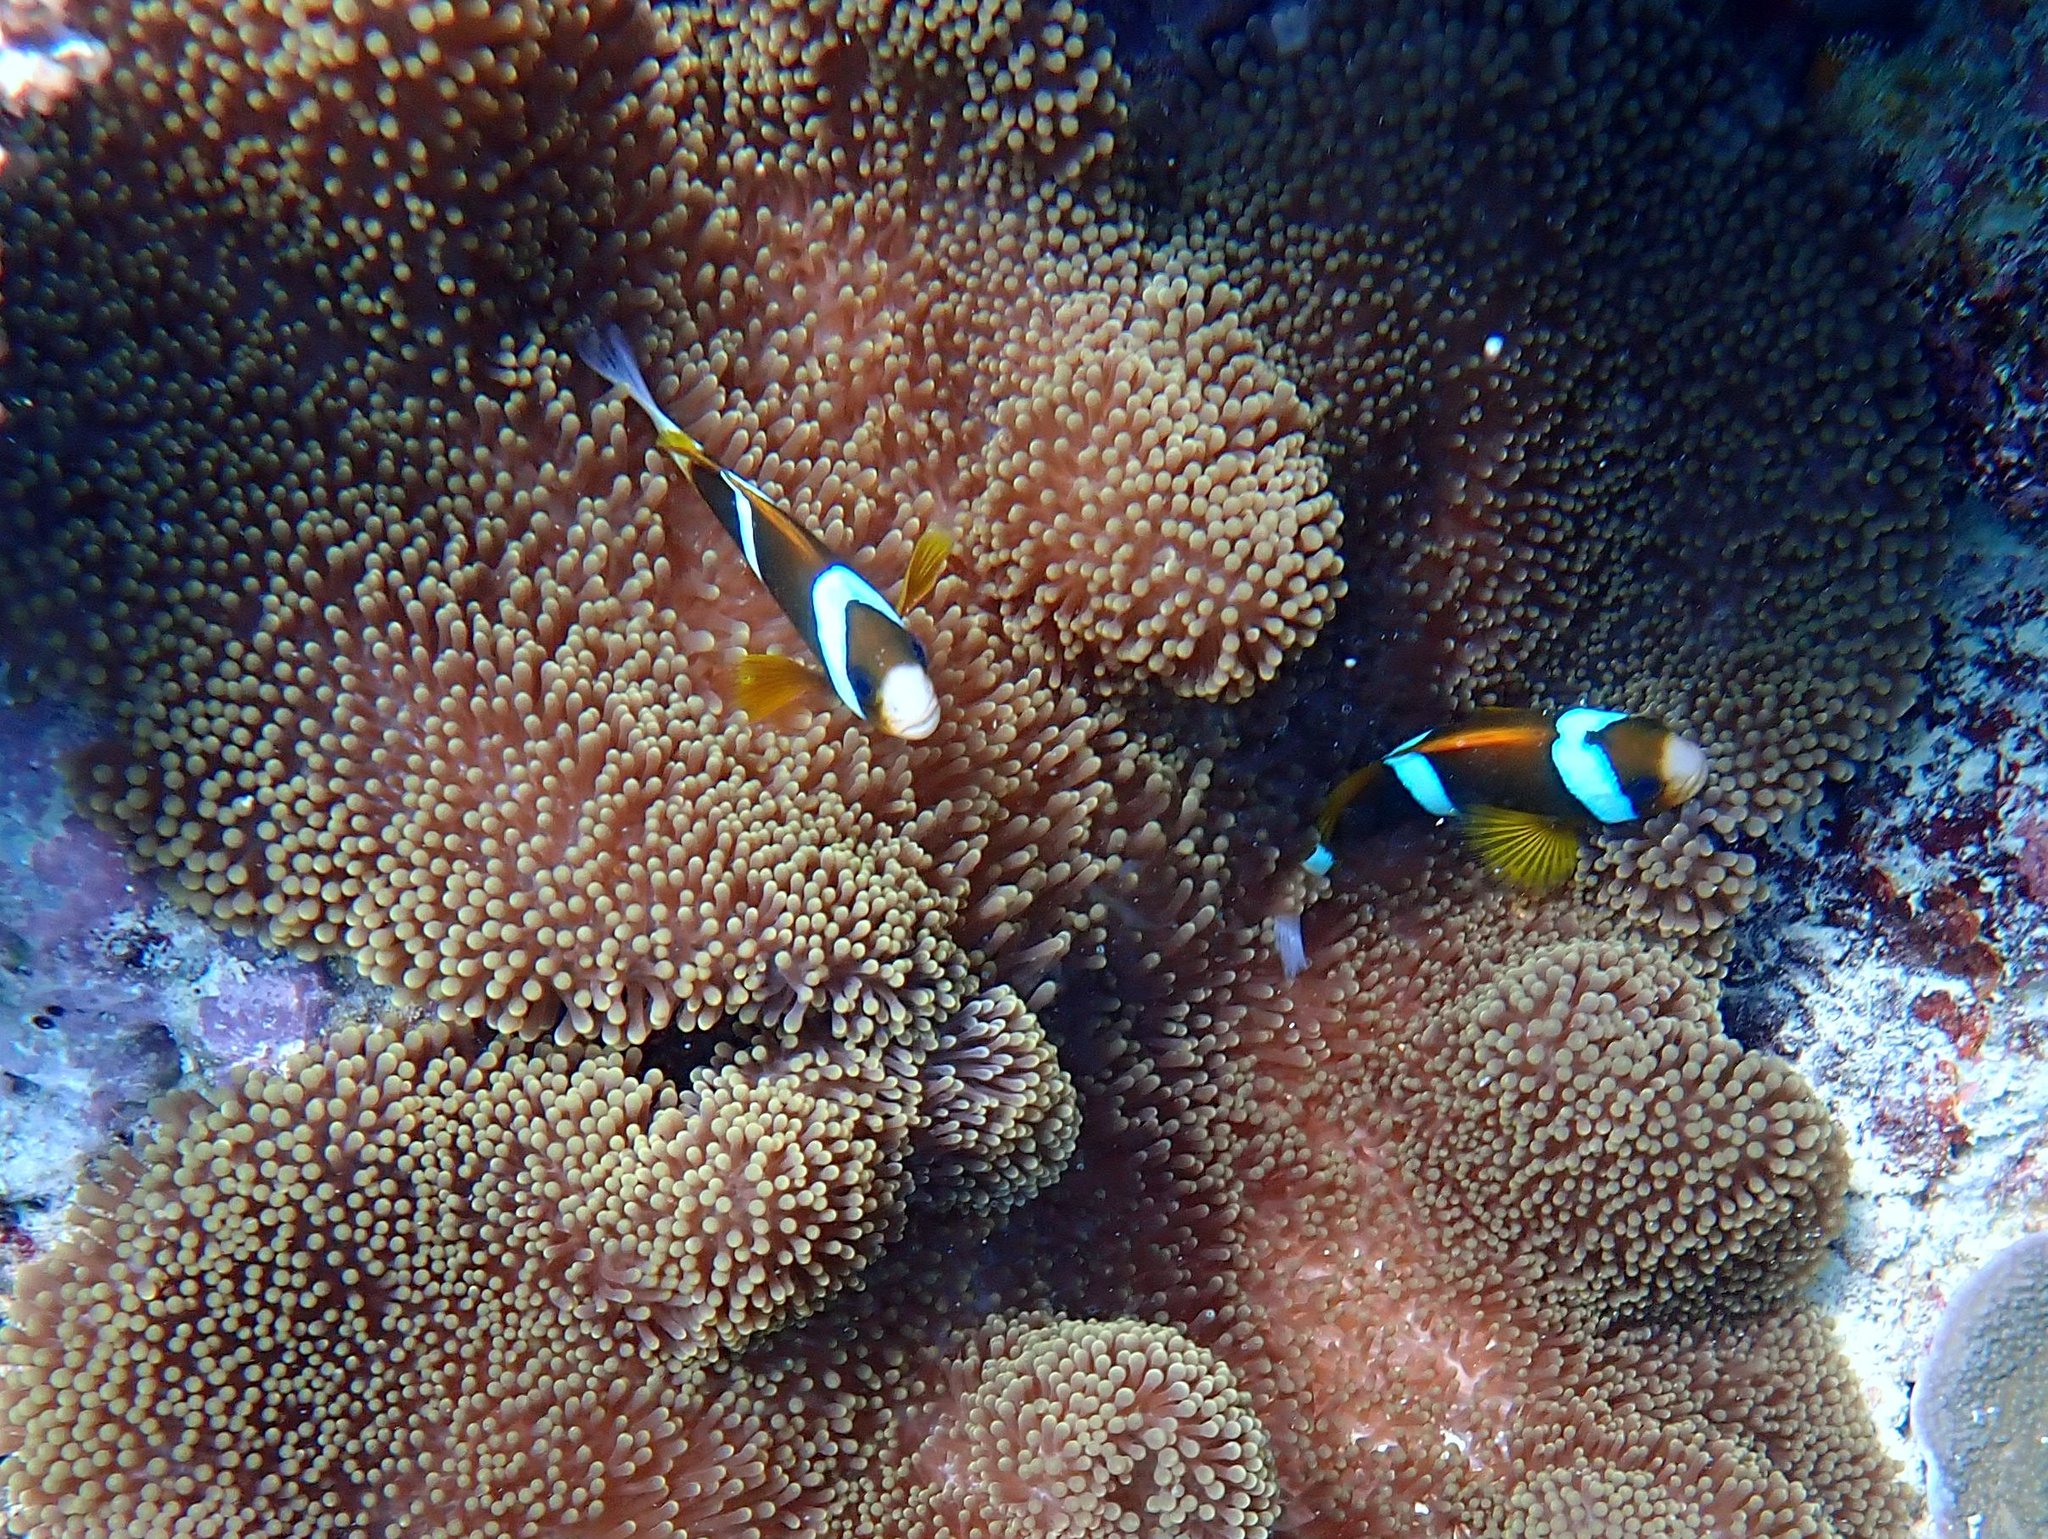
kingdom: Animalia
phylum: Chordata
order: Perciformes
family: Pomacentridae
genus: Amphiprion
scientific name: Amphiprion akindynos
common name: Barrier reef anemonefish
